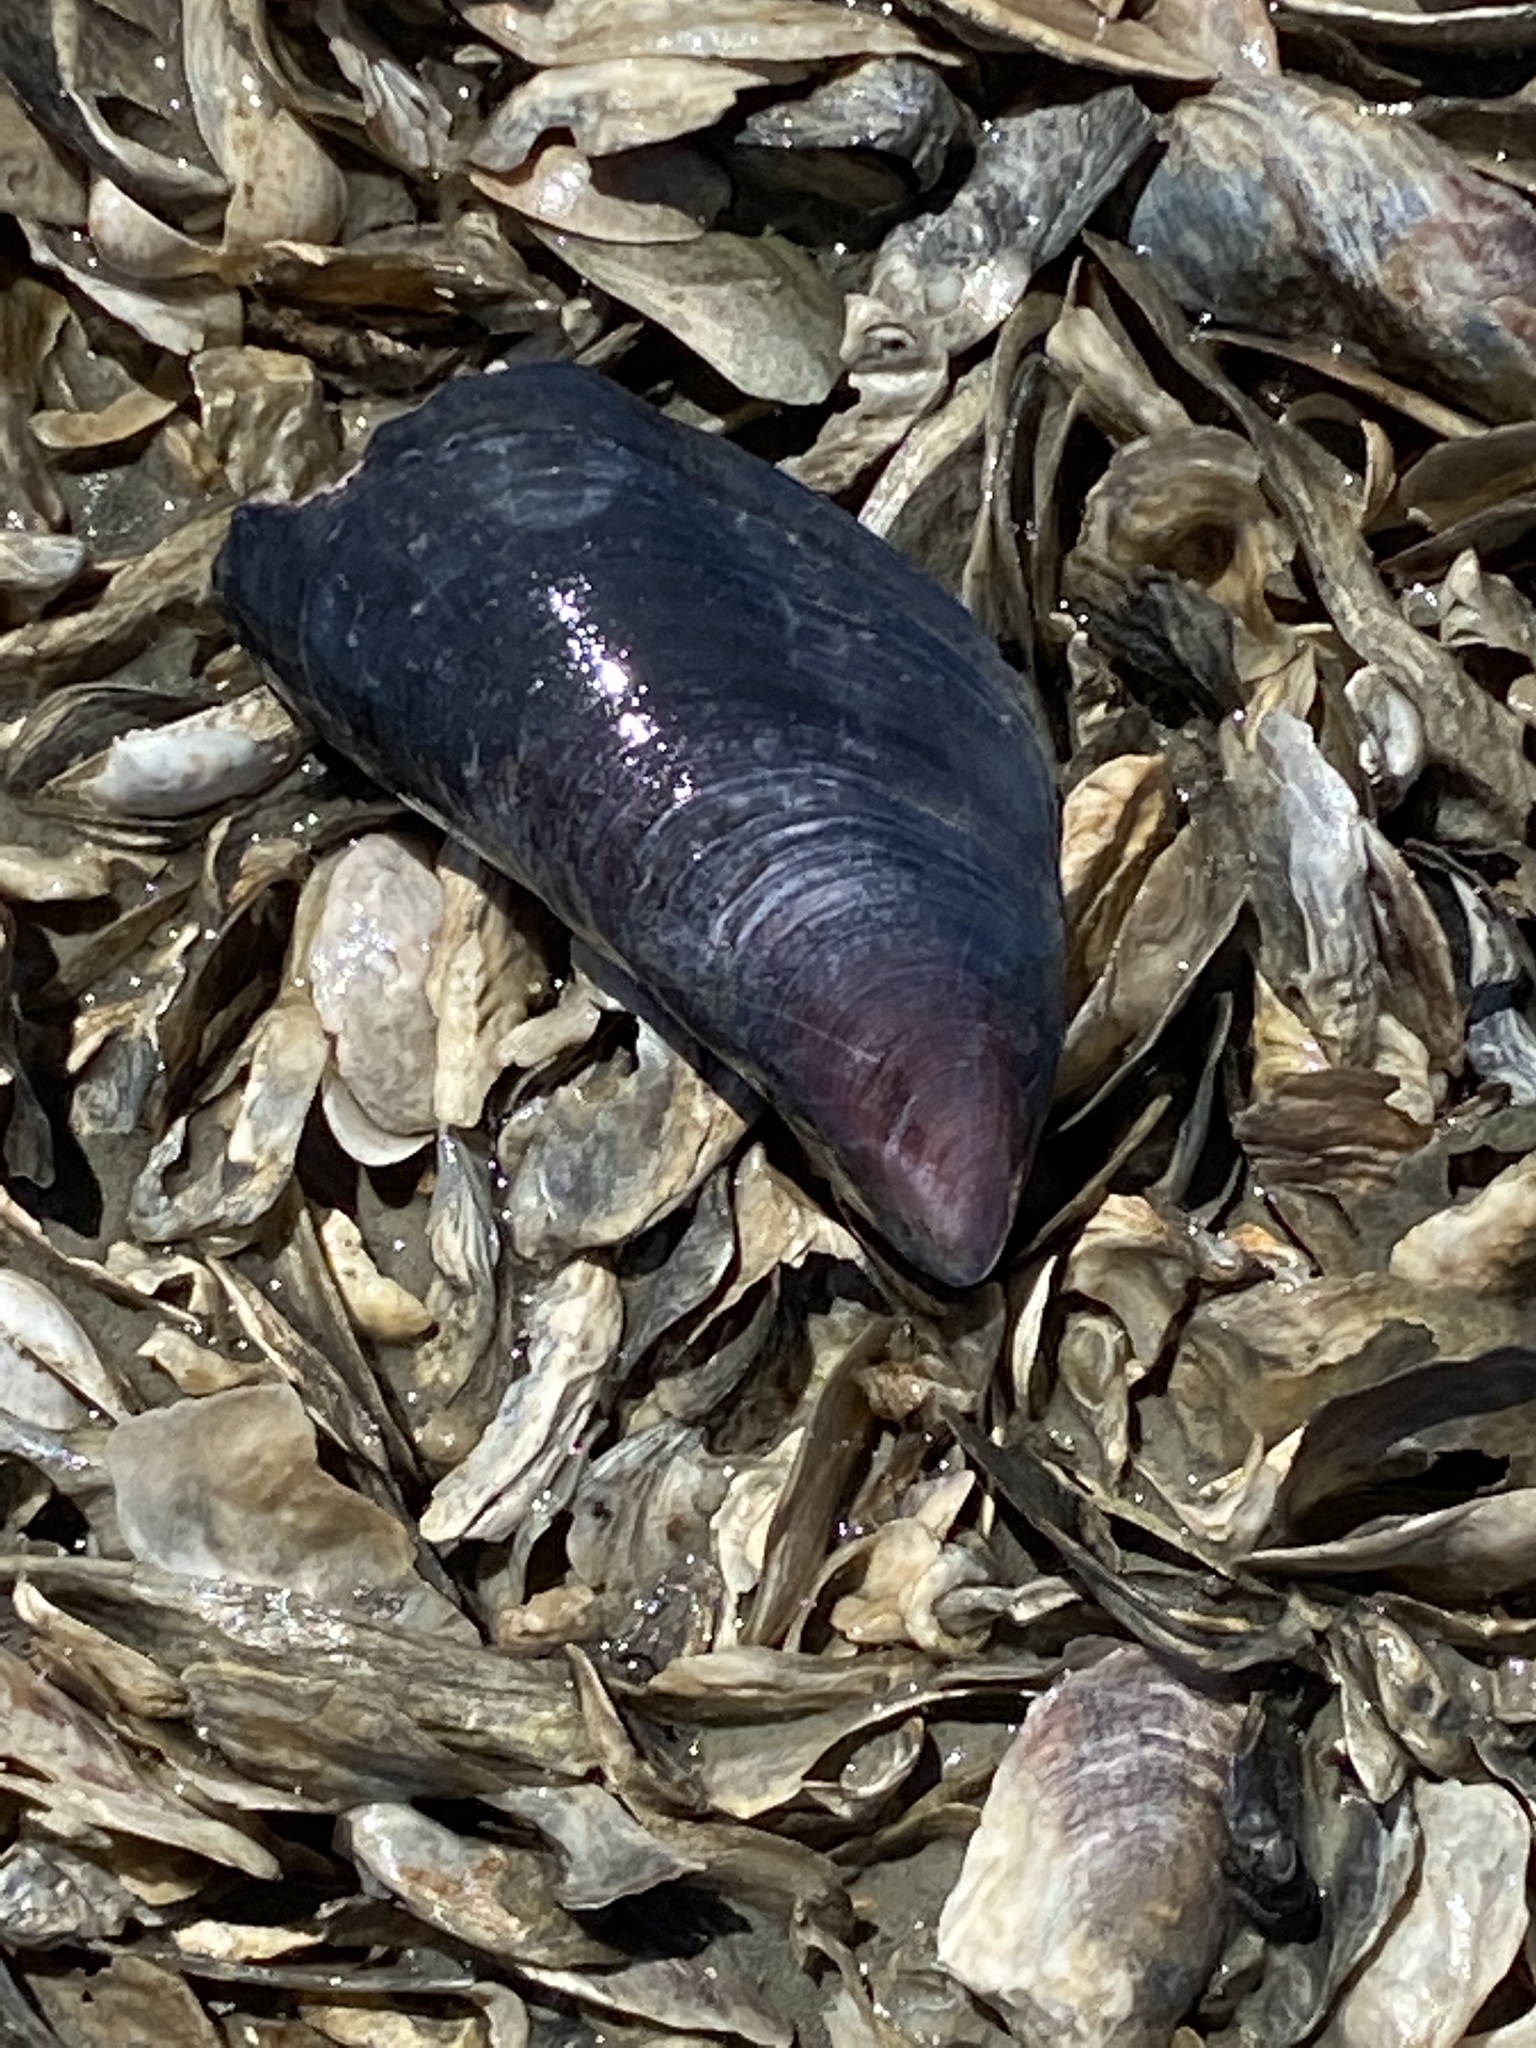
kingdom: Animalia
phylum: Mollusca
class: Bivalvia
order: Mytilida
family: Mytilidae
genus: Mytilus
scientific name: Mytilus
